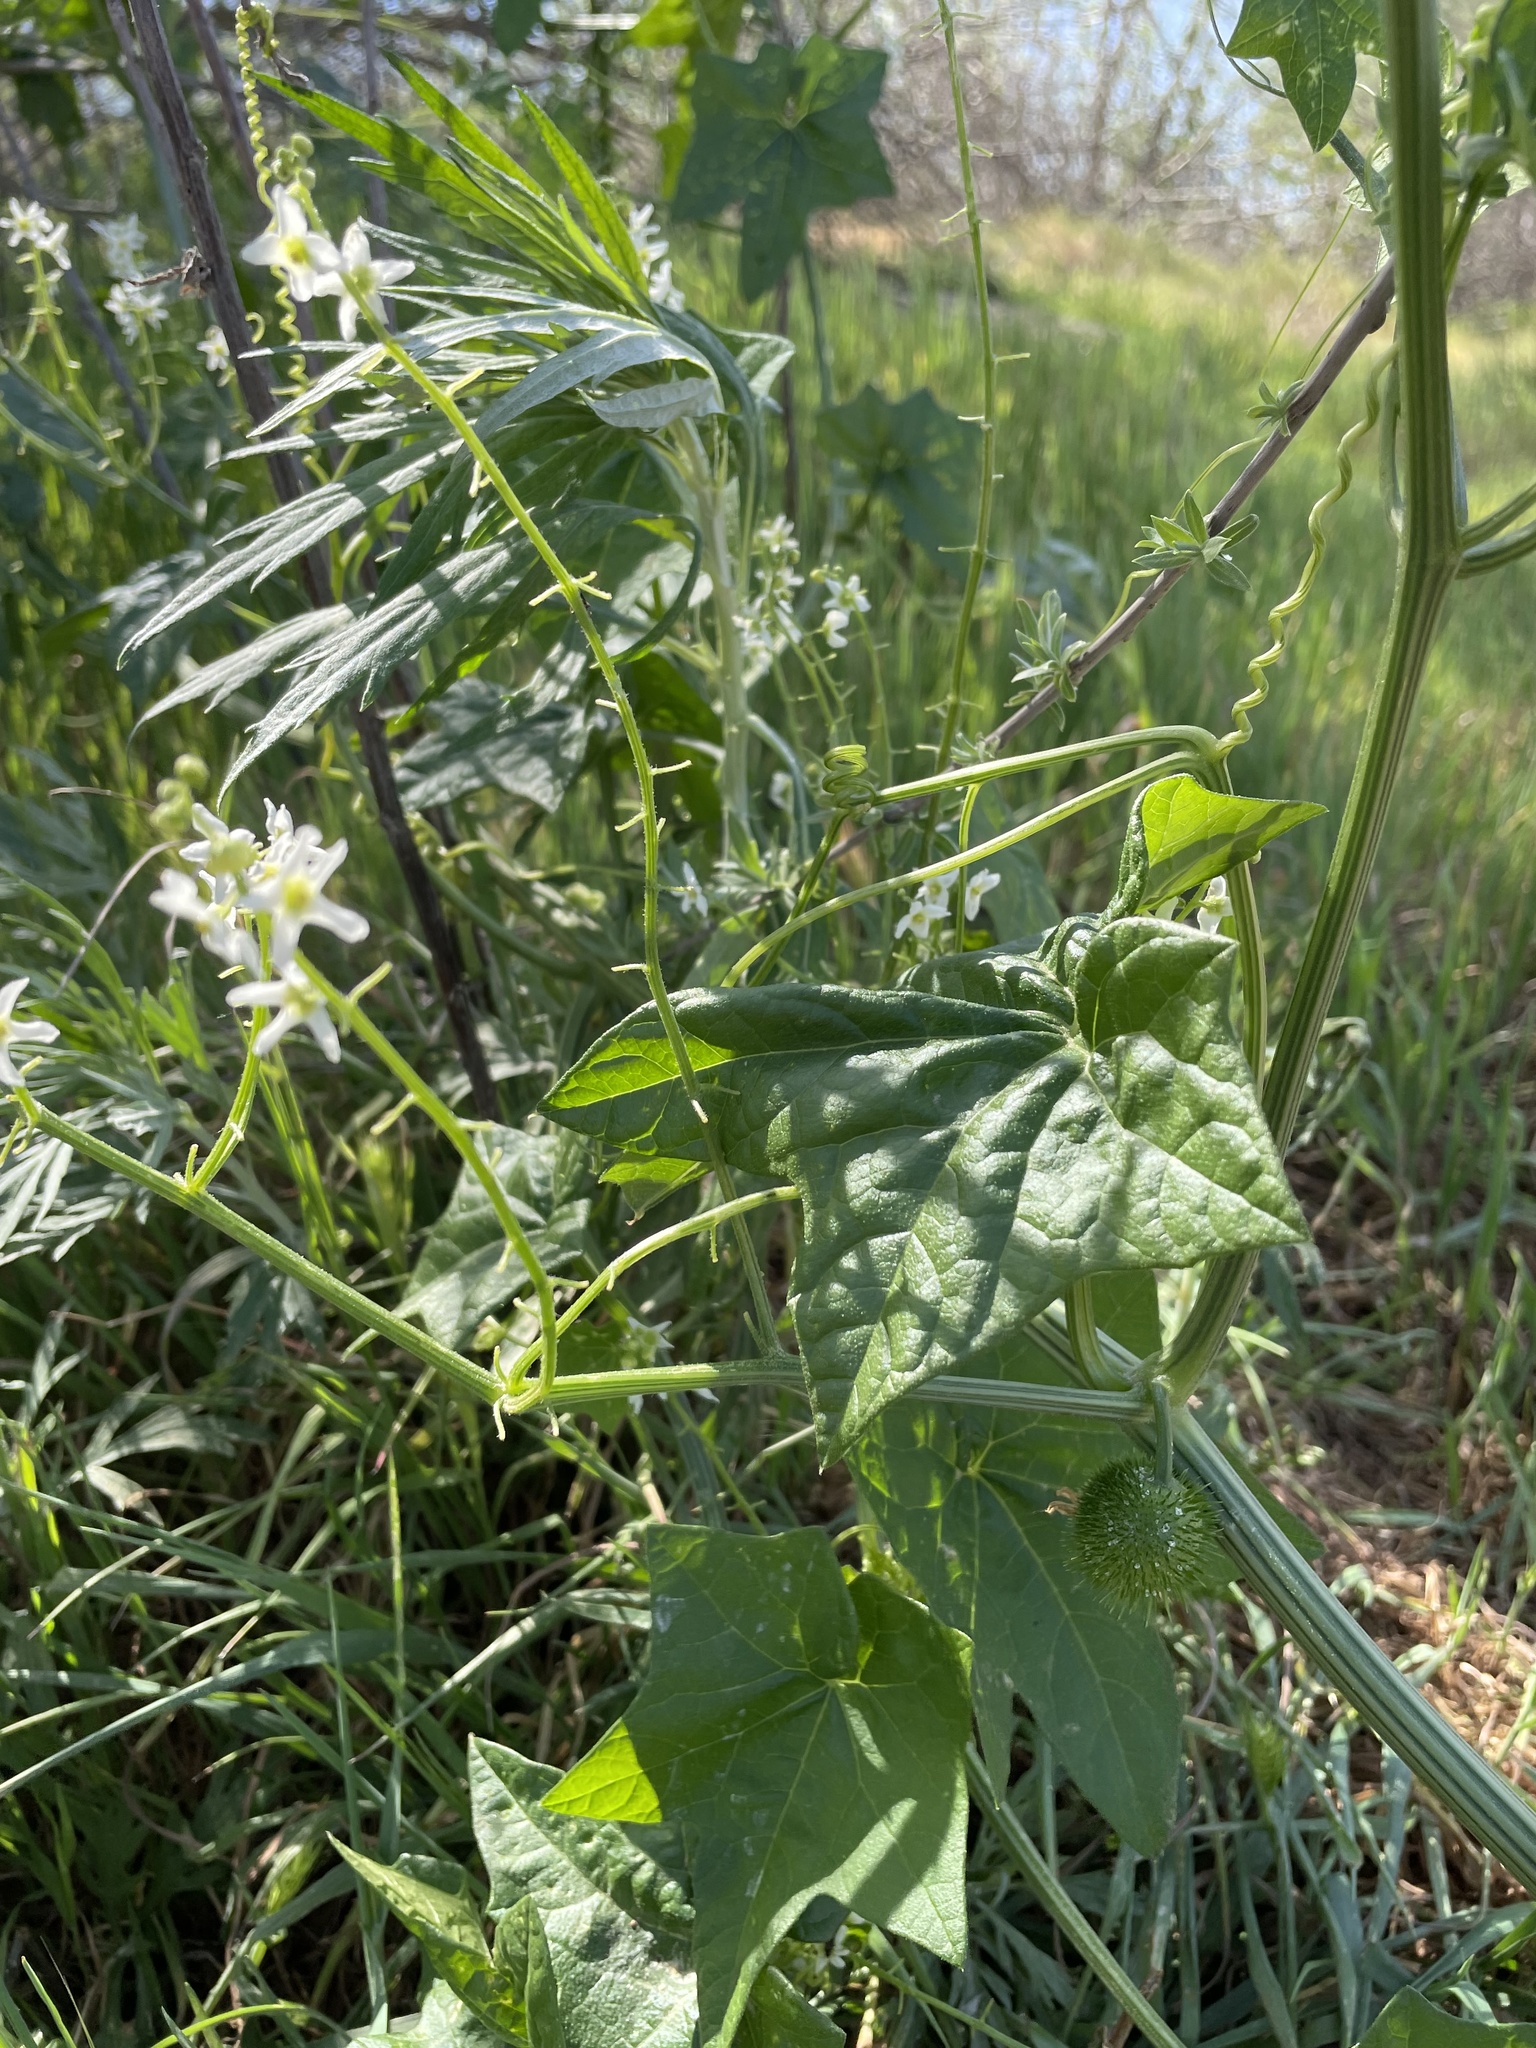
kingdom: Plantae
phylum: Tracheophyta
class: Magnoliopsida
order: Cucurbitales
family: Cucurbitaceae
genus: Marah
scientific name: Marah fabacea
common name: California manroot
